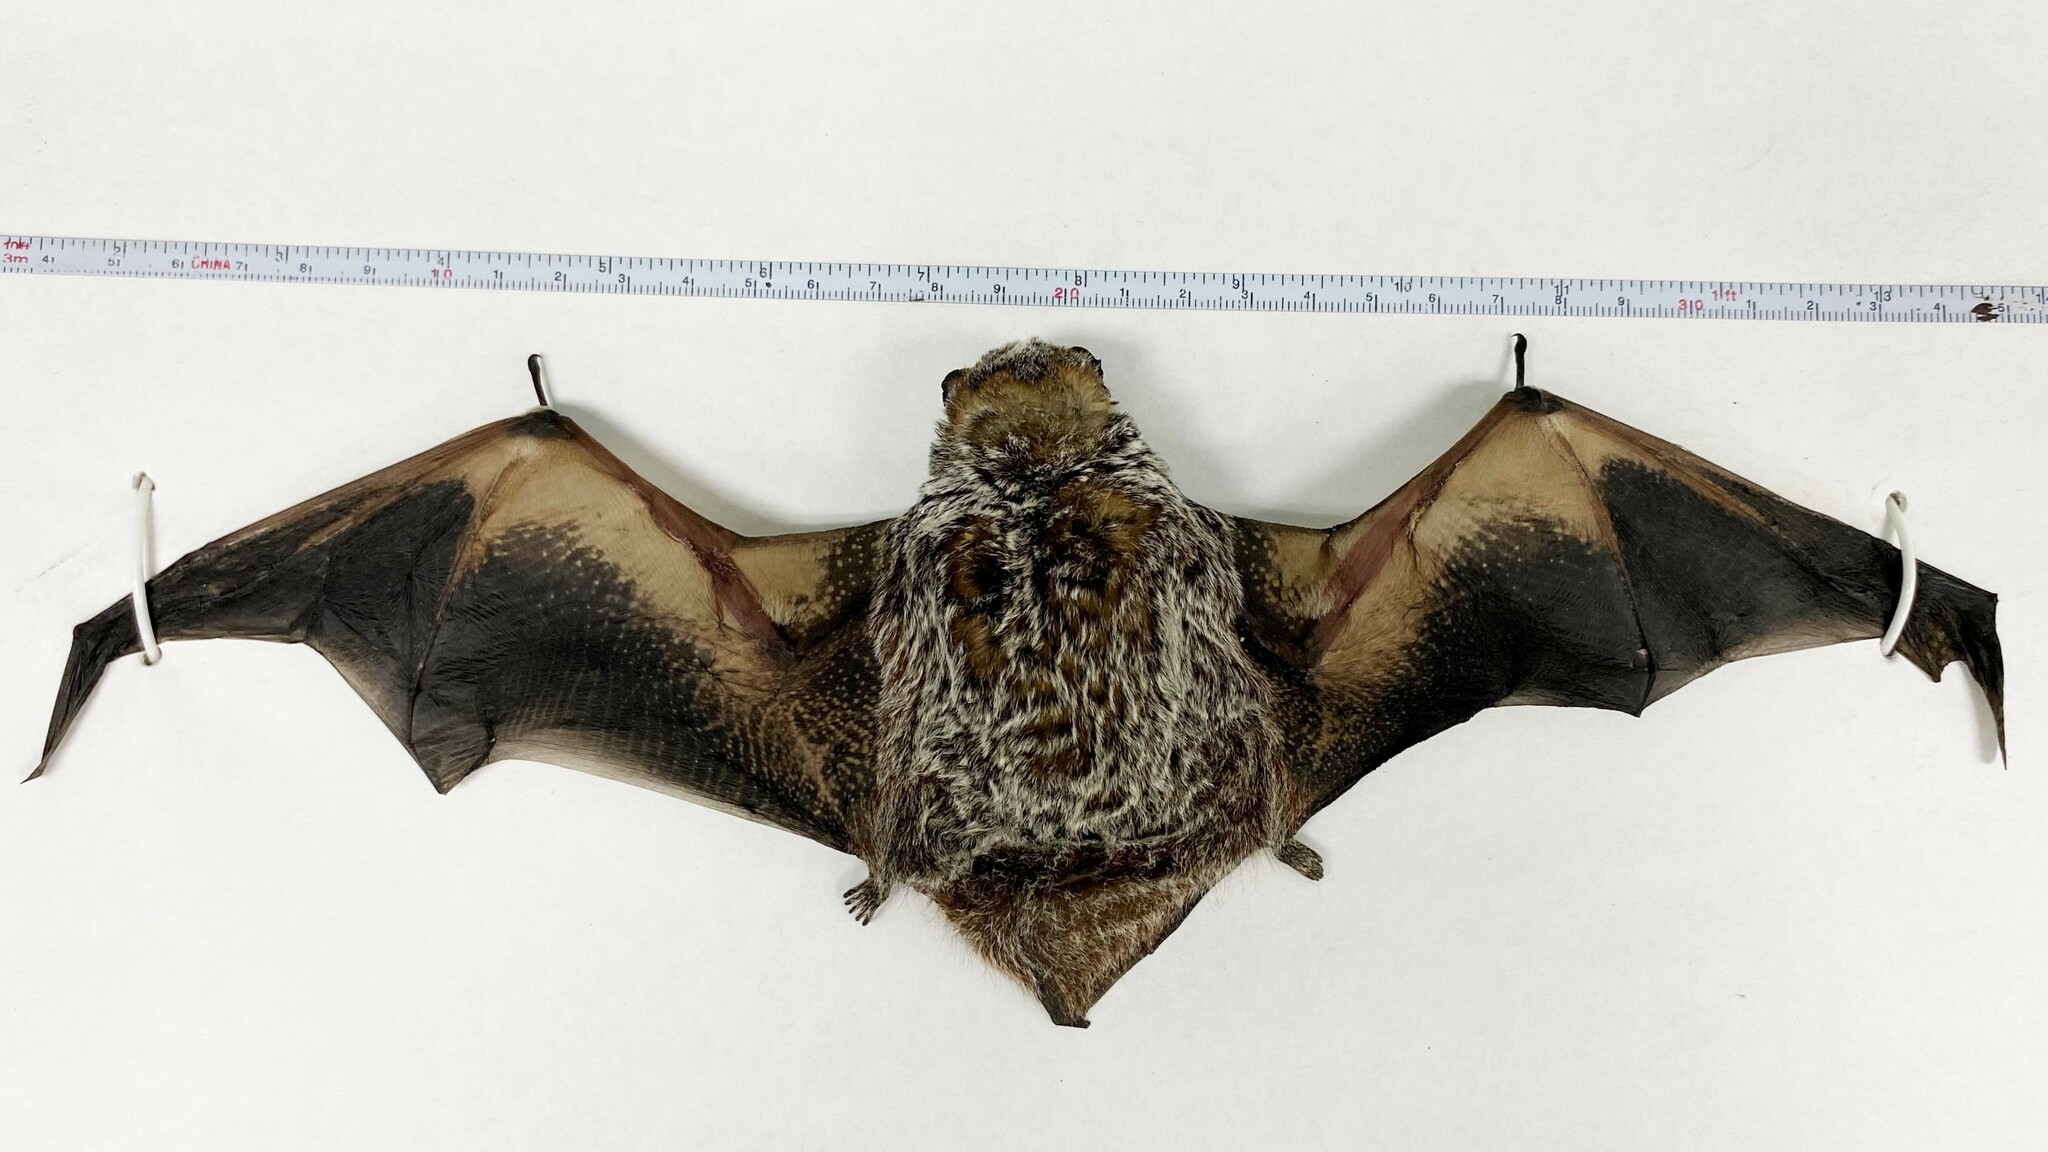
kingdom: Animalia
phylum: Chordata
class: Mammalia
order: Chiroptera
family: Vespertilionidae
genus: Aeorestes
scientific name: Aeorestes cinereus
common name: North american hoary bat
